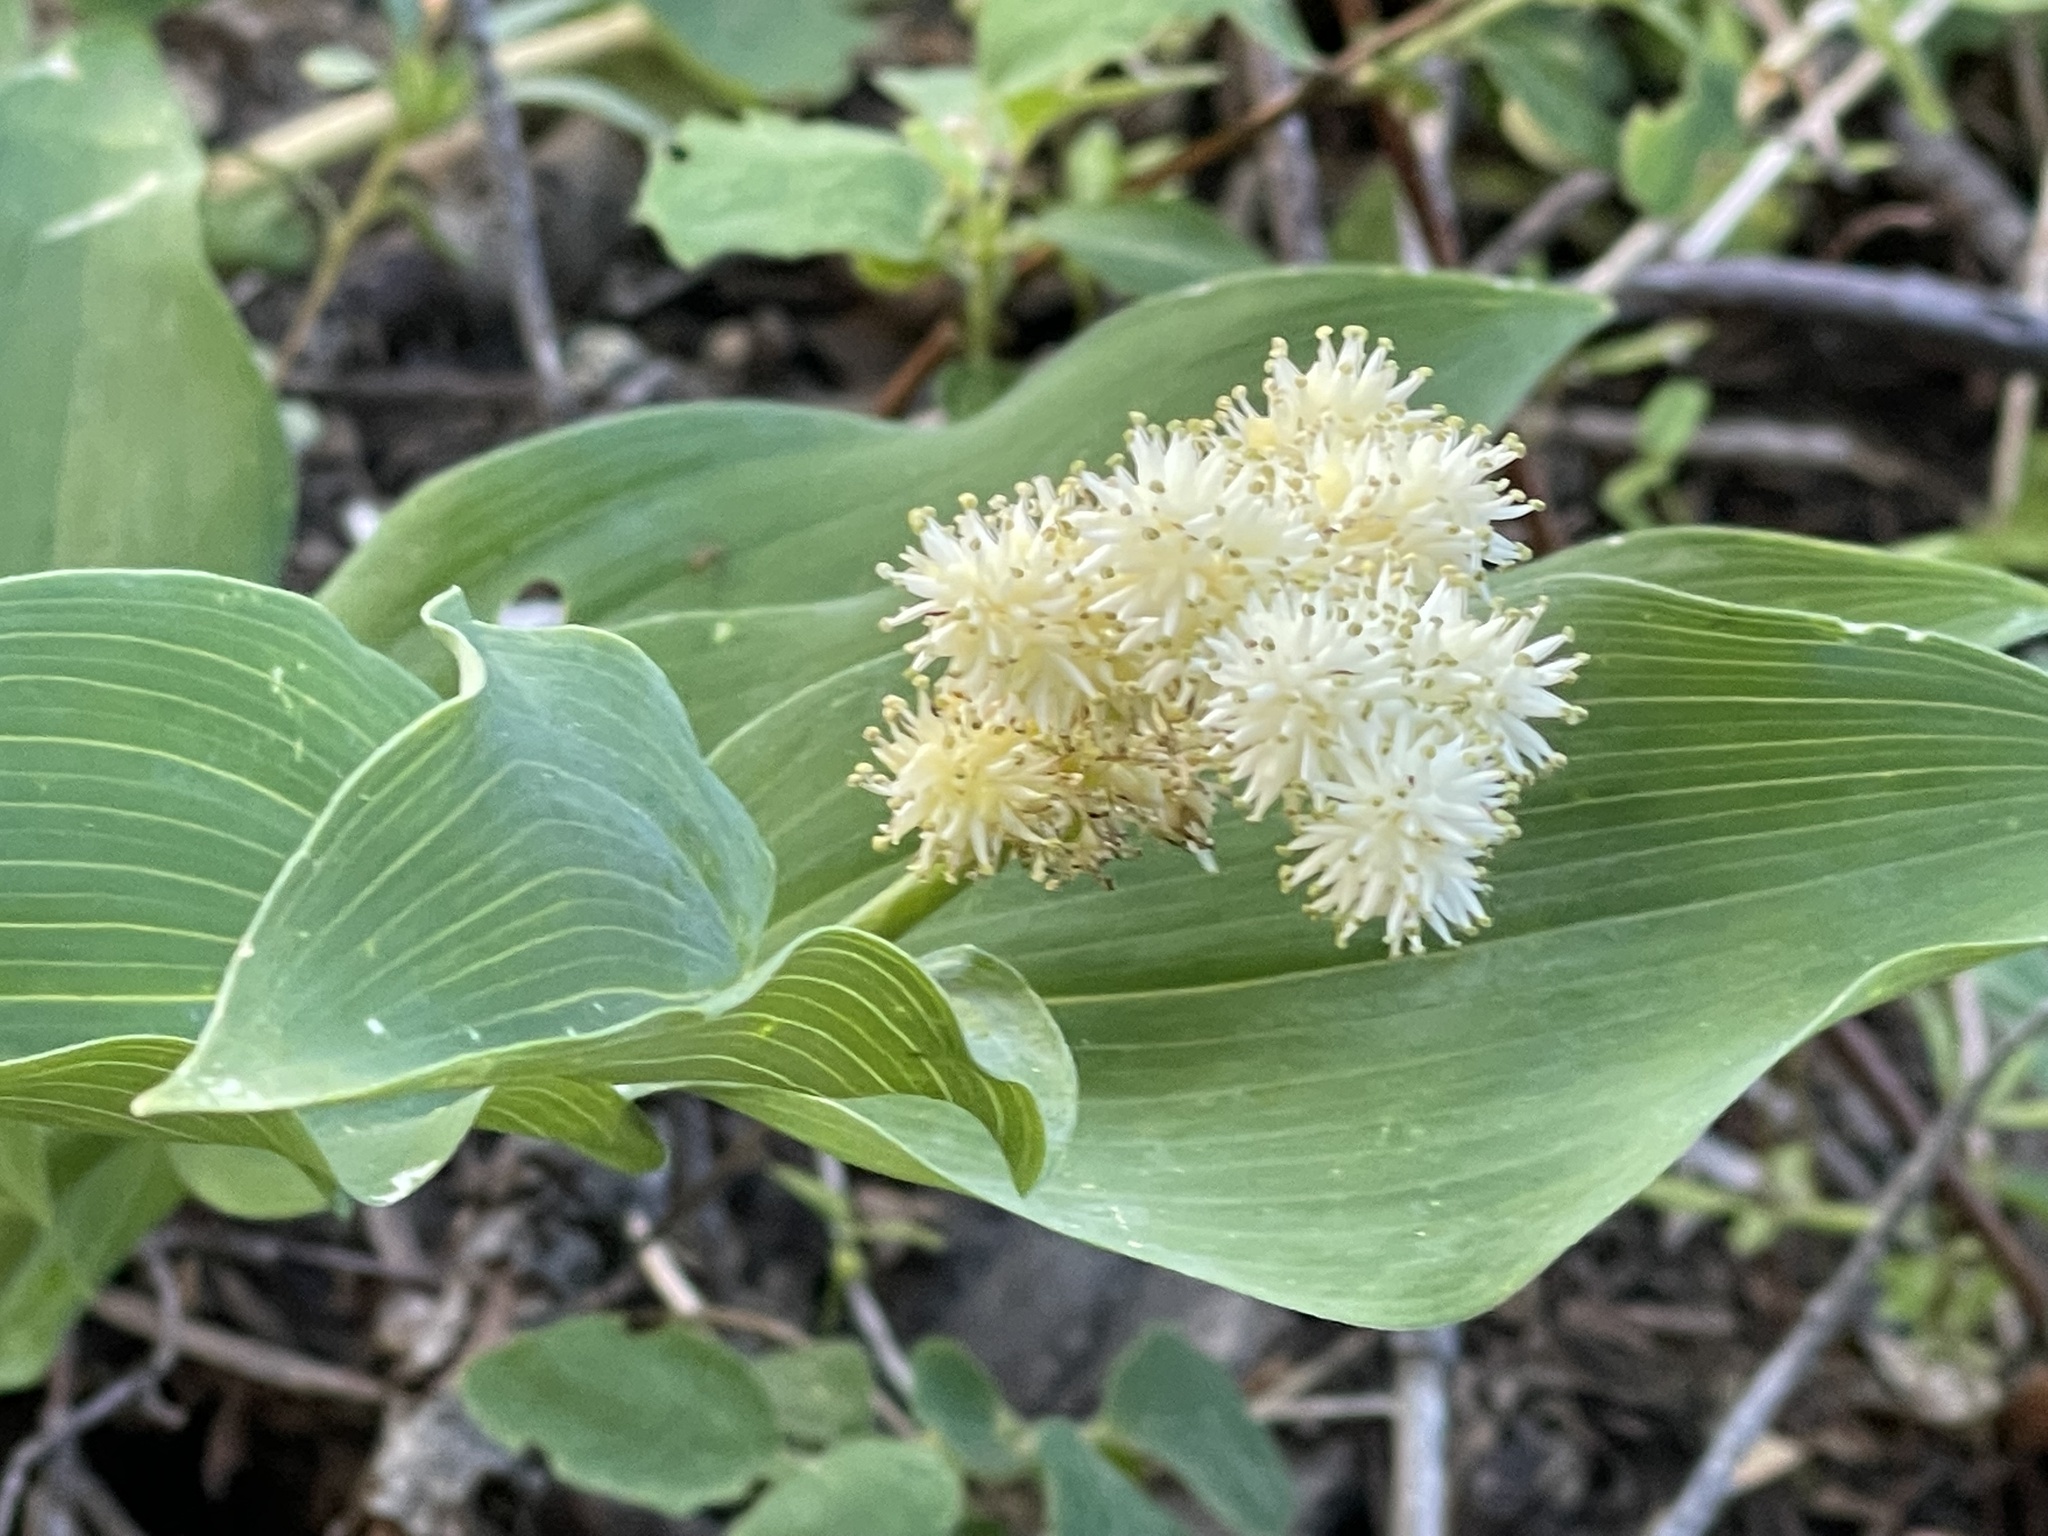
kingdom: Plantae
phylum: Tracheophyta
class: Liliopsida
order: Asparagales
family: Asparagaceae
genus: Maianthemum
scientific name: Maianthemum racemosum
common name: False spikenard
